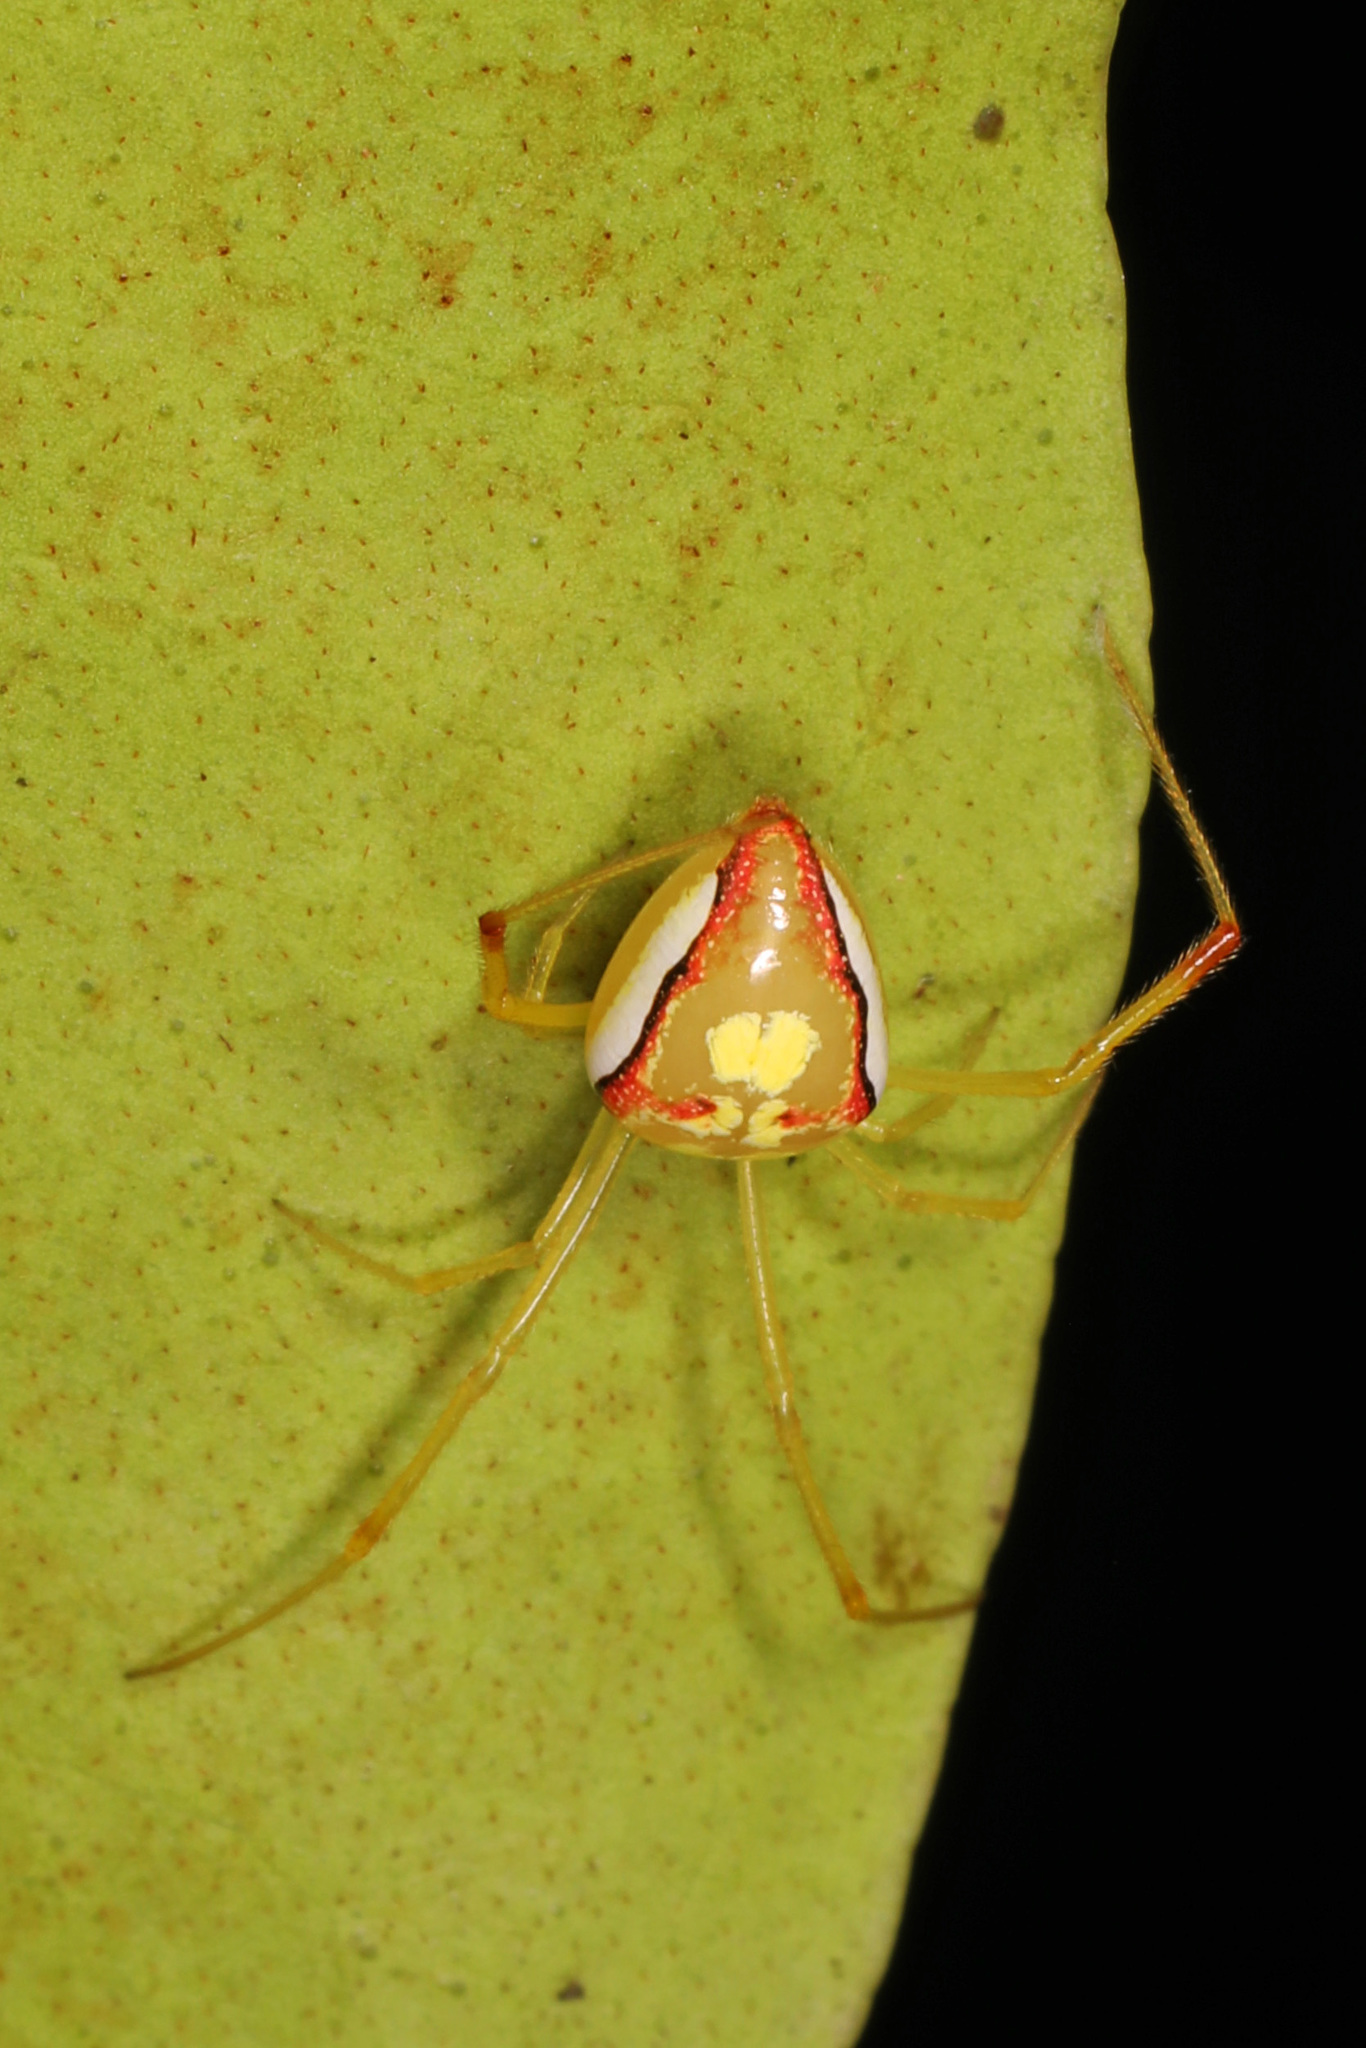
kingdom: Animalia
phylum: Arthropoda
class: Arachnida
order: Araneae
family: Theridiidae
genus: Spintharus
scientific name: Spintharus flavidus
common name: Cobweb spiders
